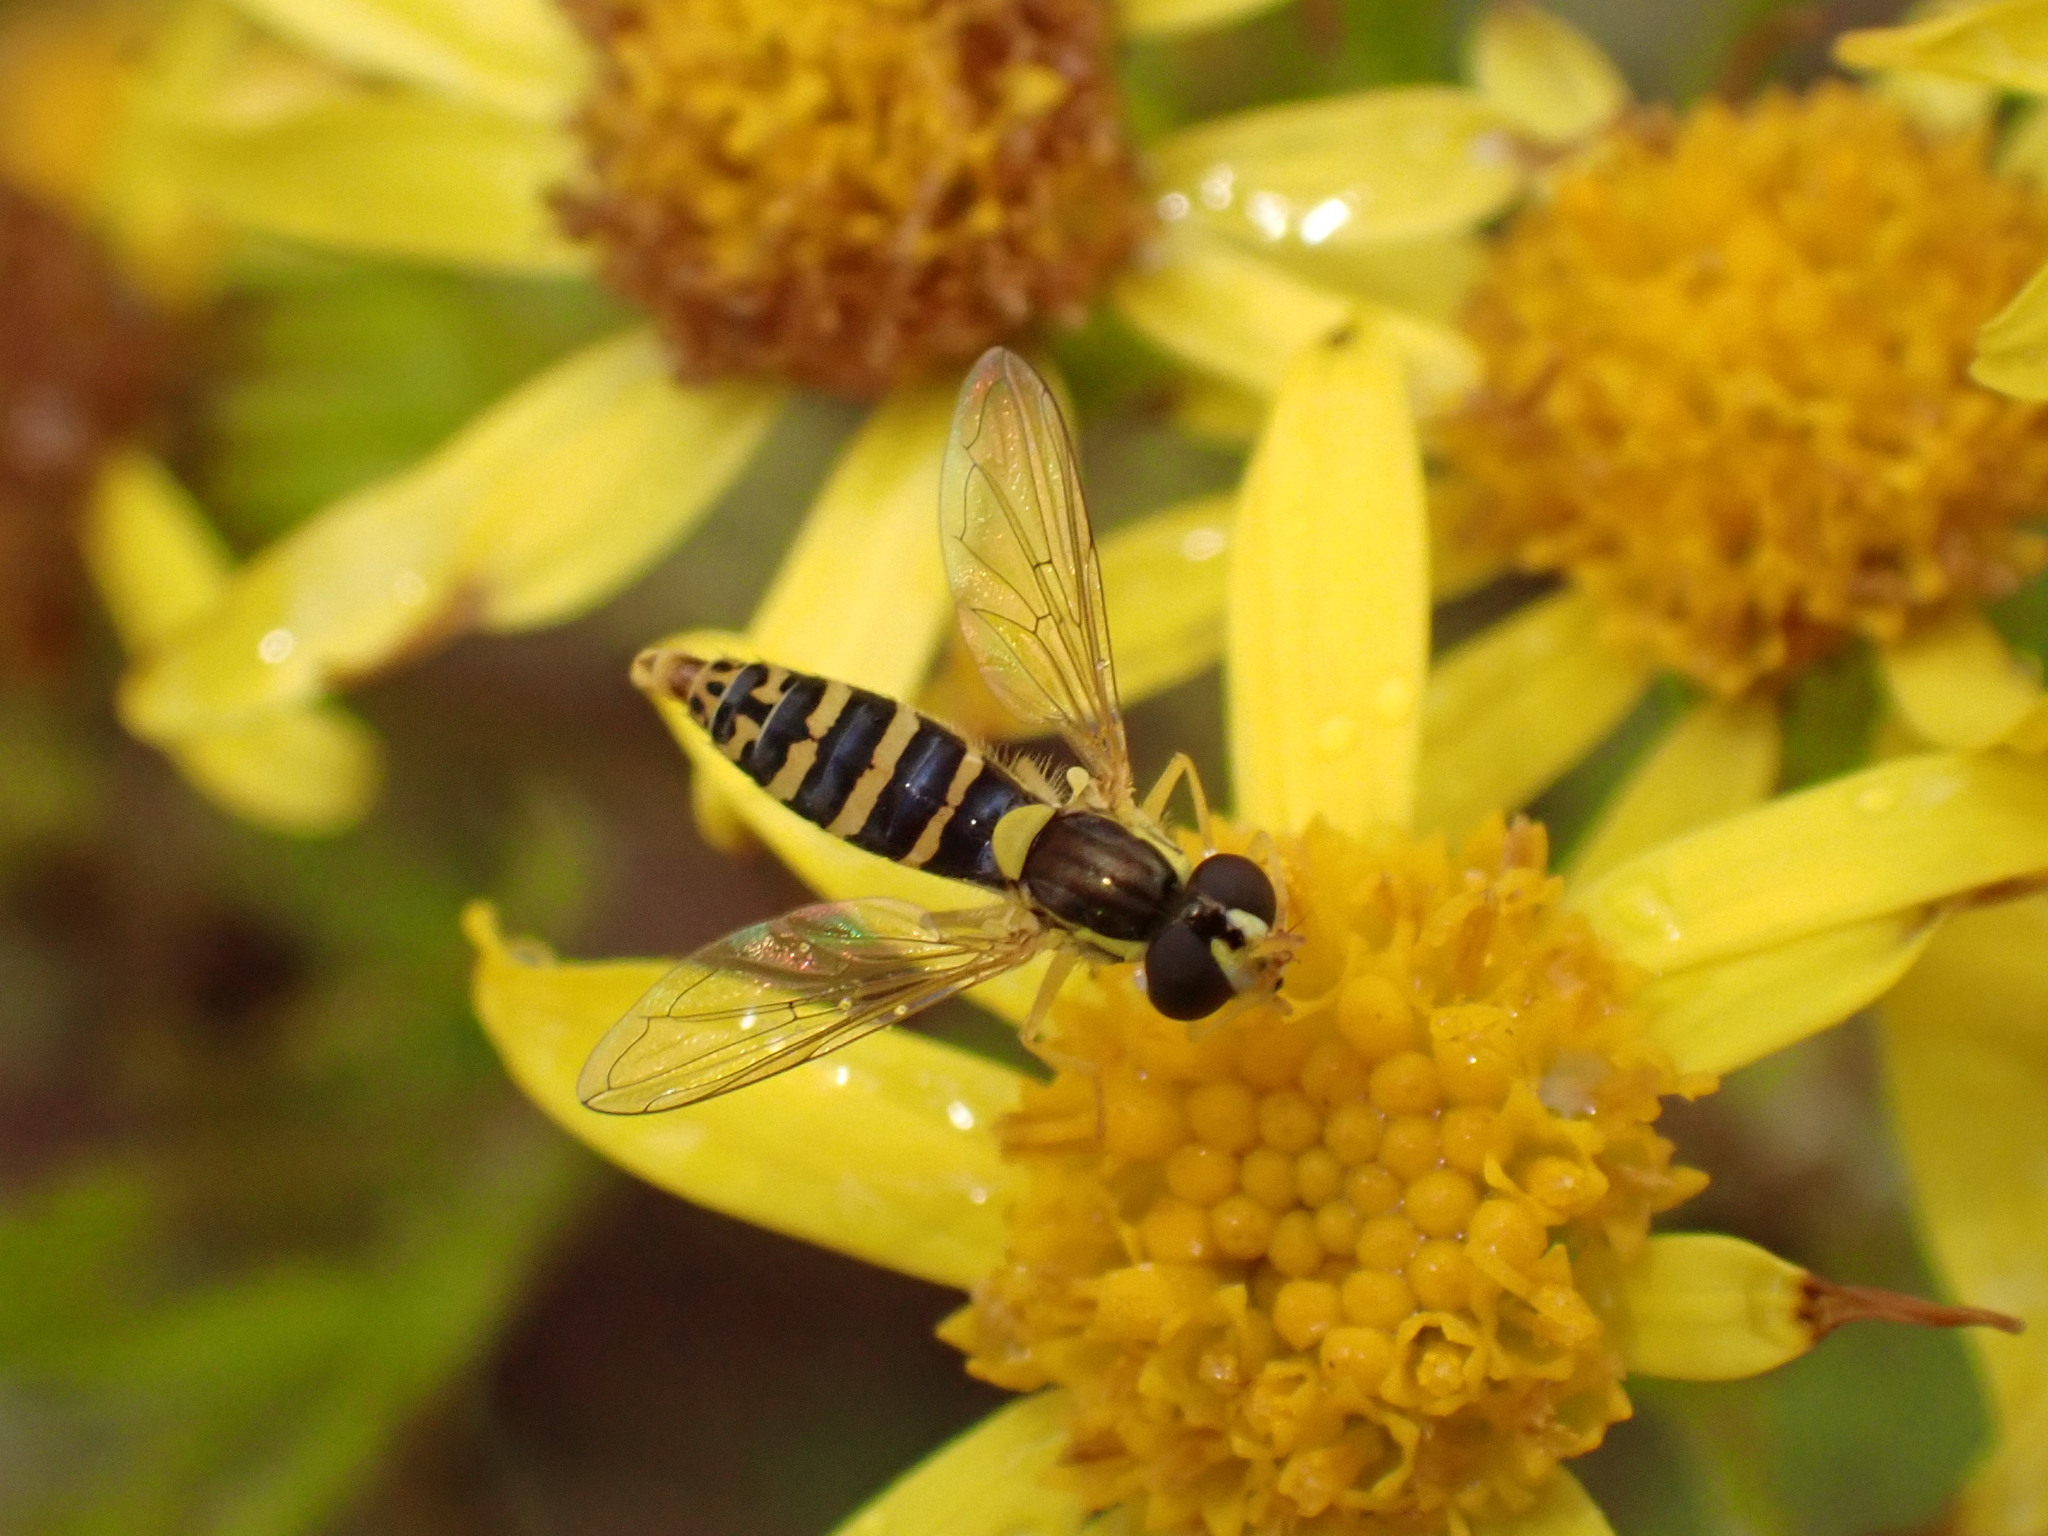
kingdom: Animalia
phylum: Arthropoda
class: Insecta
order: Diptera
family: Syrphidae
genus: Sphaerophoria
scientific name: Sphaerophoria
